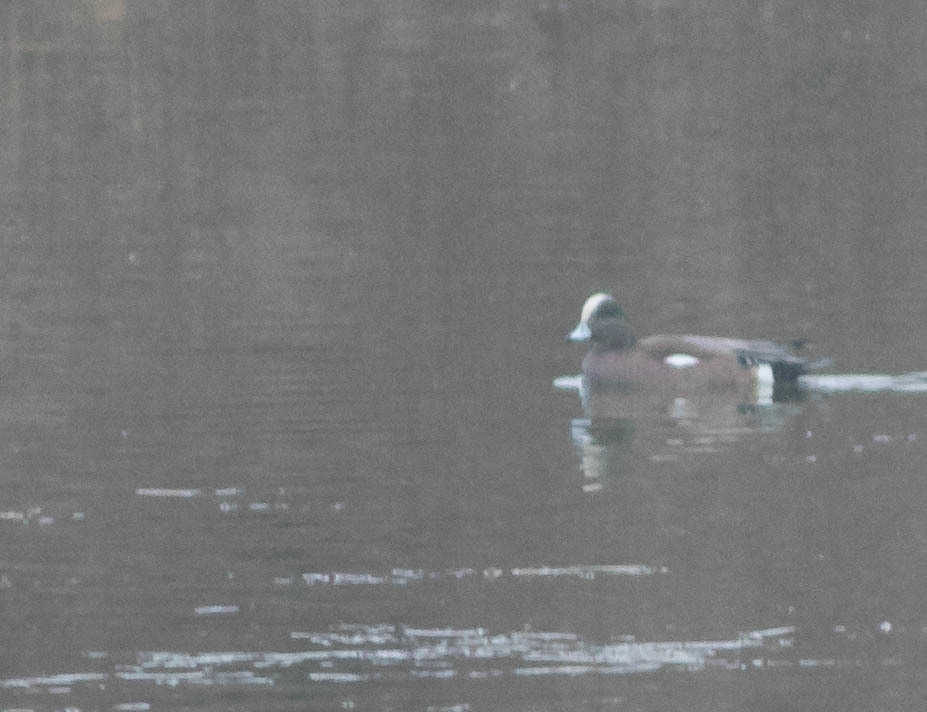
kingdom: Animalia
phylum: Chordata
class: Aves
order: Anseriformes
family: Anatidae
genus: Mareca
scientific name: Mareca americana
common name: American wigeon
